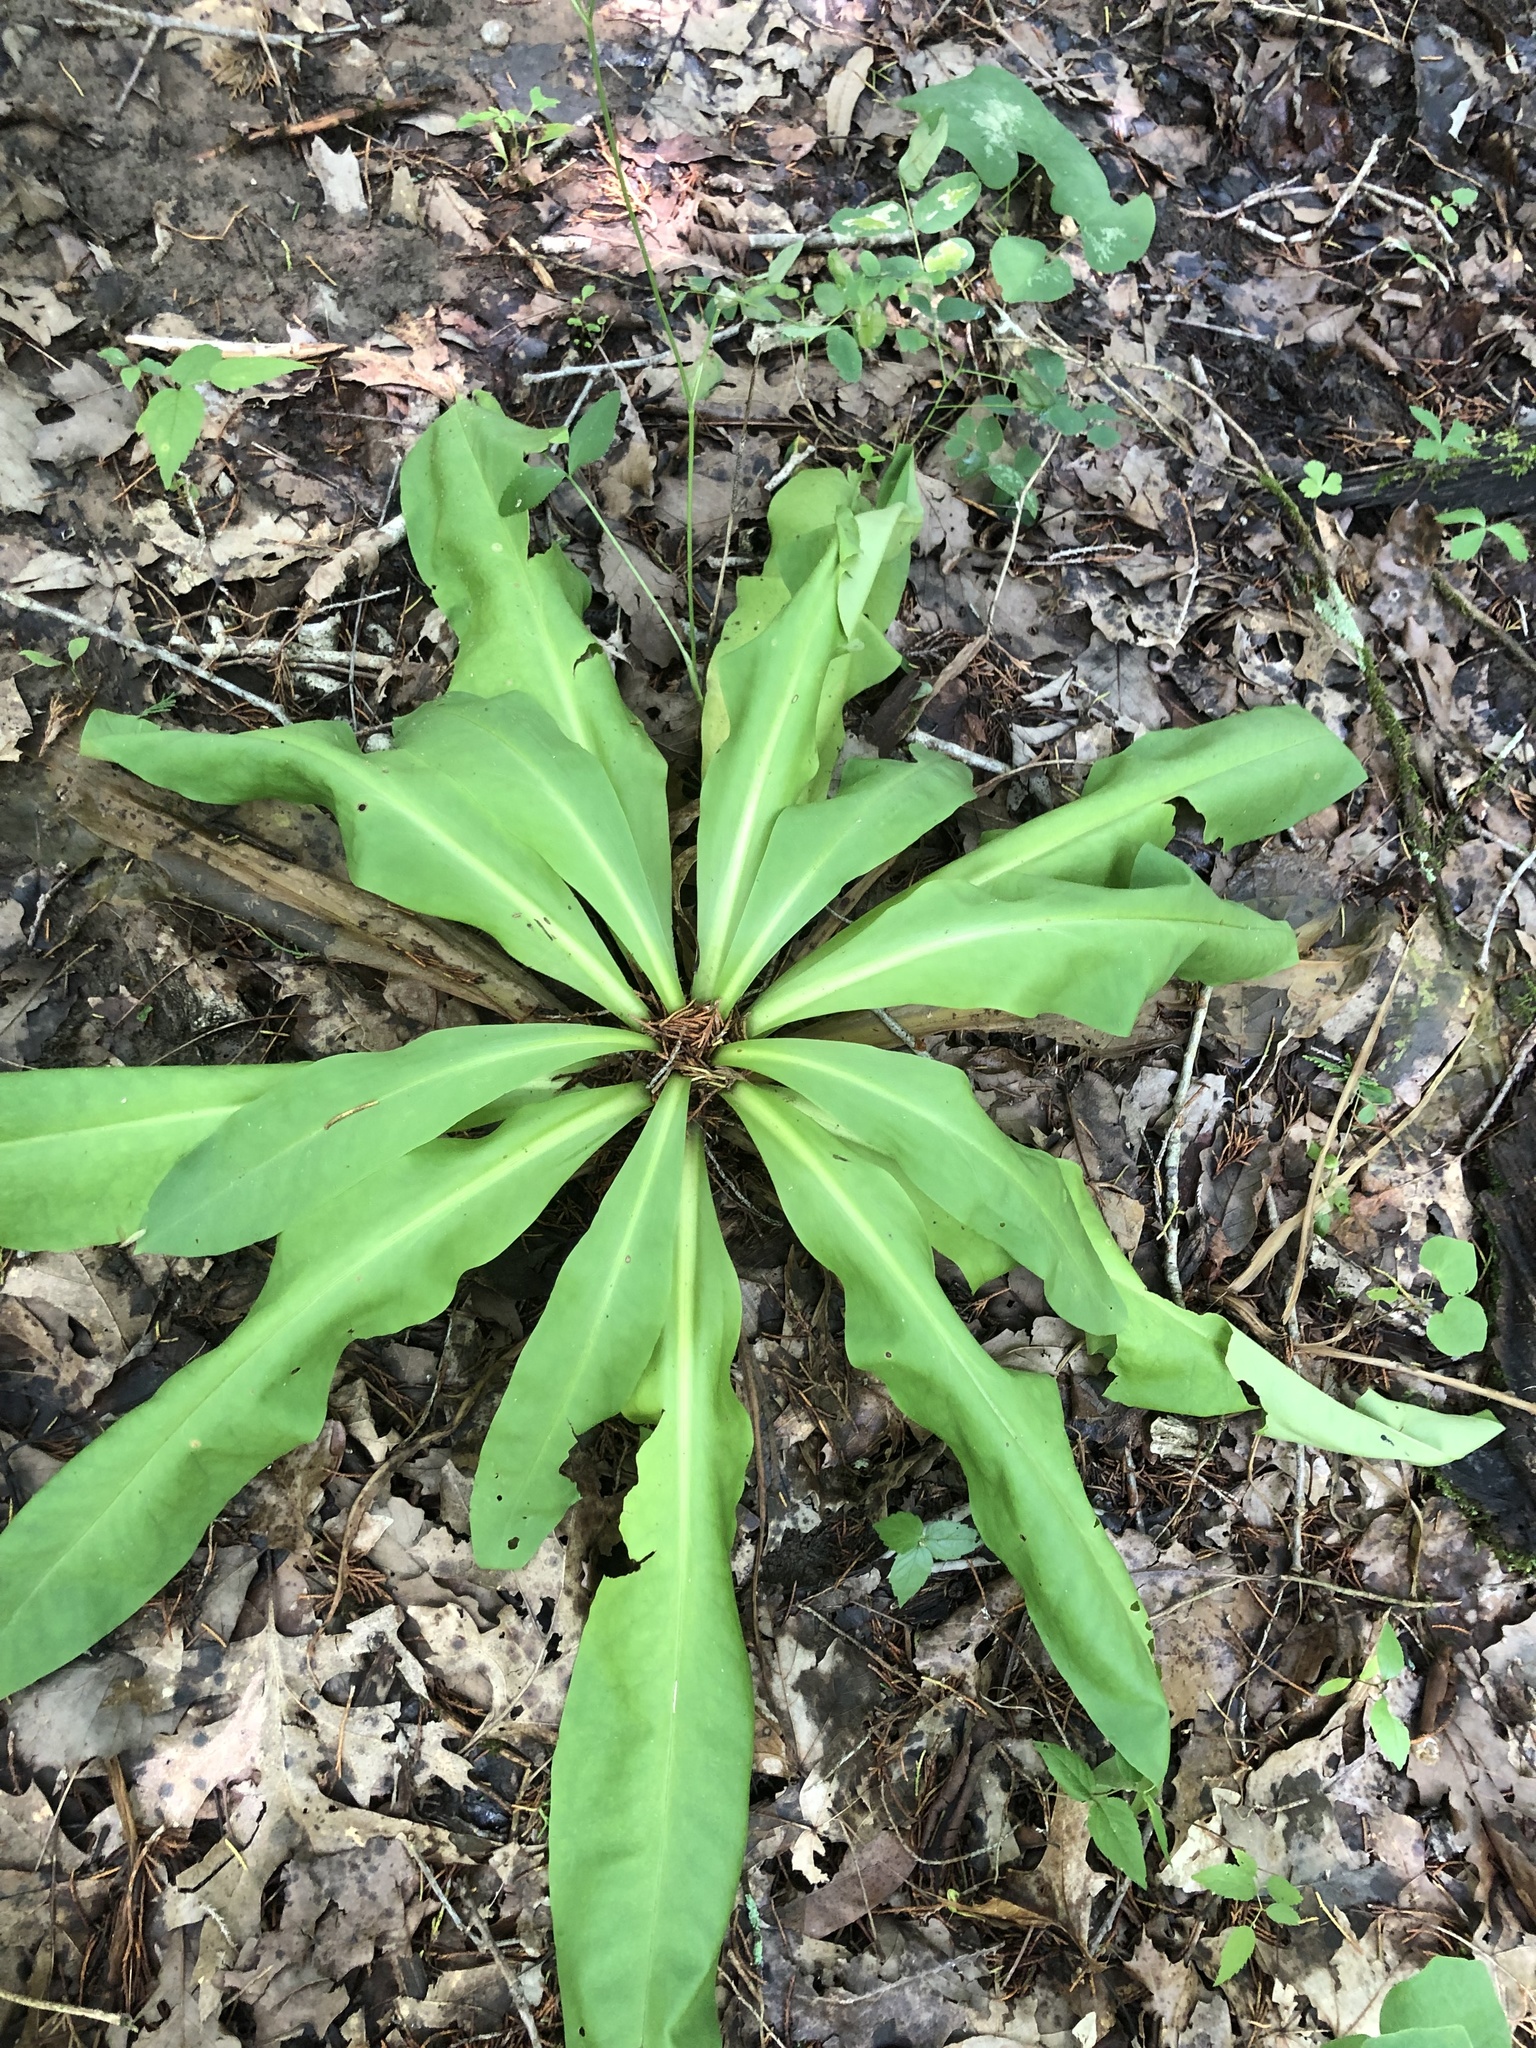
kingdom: Plantae
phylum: Tracheophyta
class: Magnoliopsida
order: Gentianales
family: Gentianaceae
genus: Frasera
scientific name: Frasera caroliniensis
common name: American columbo
